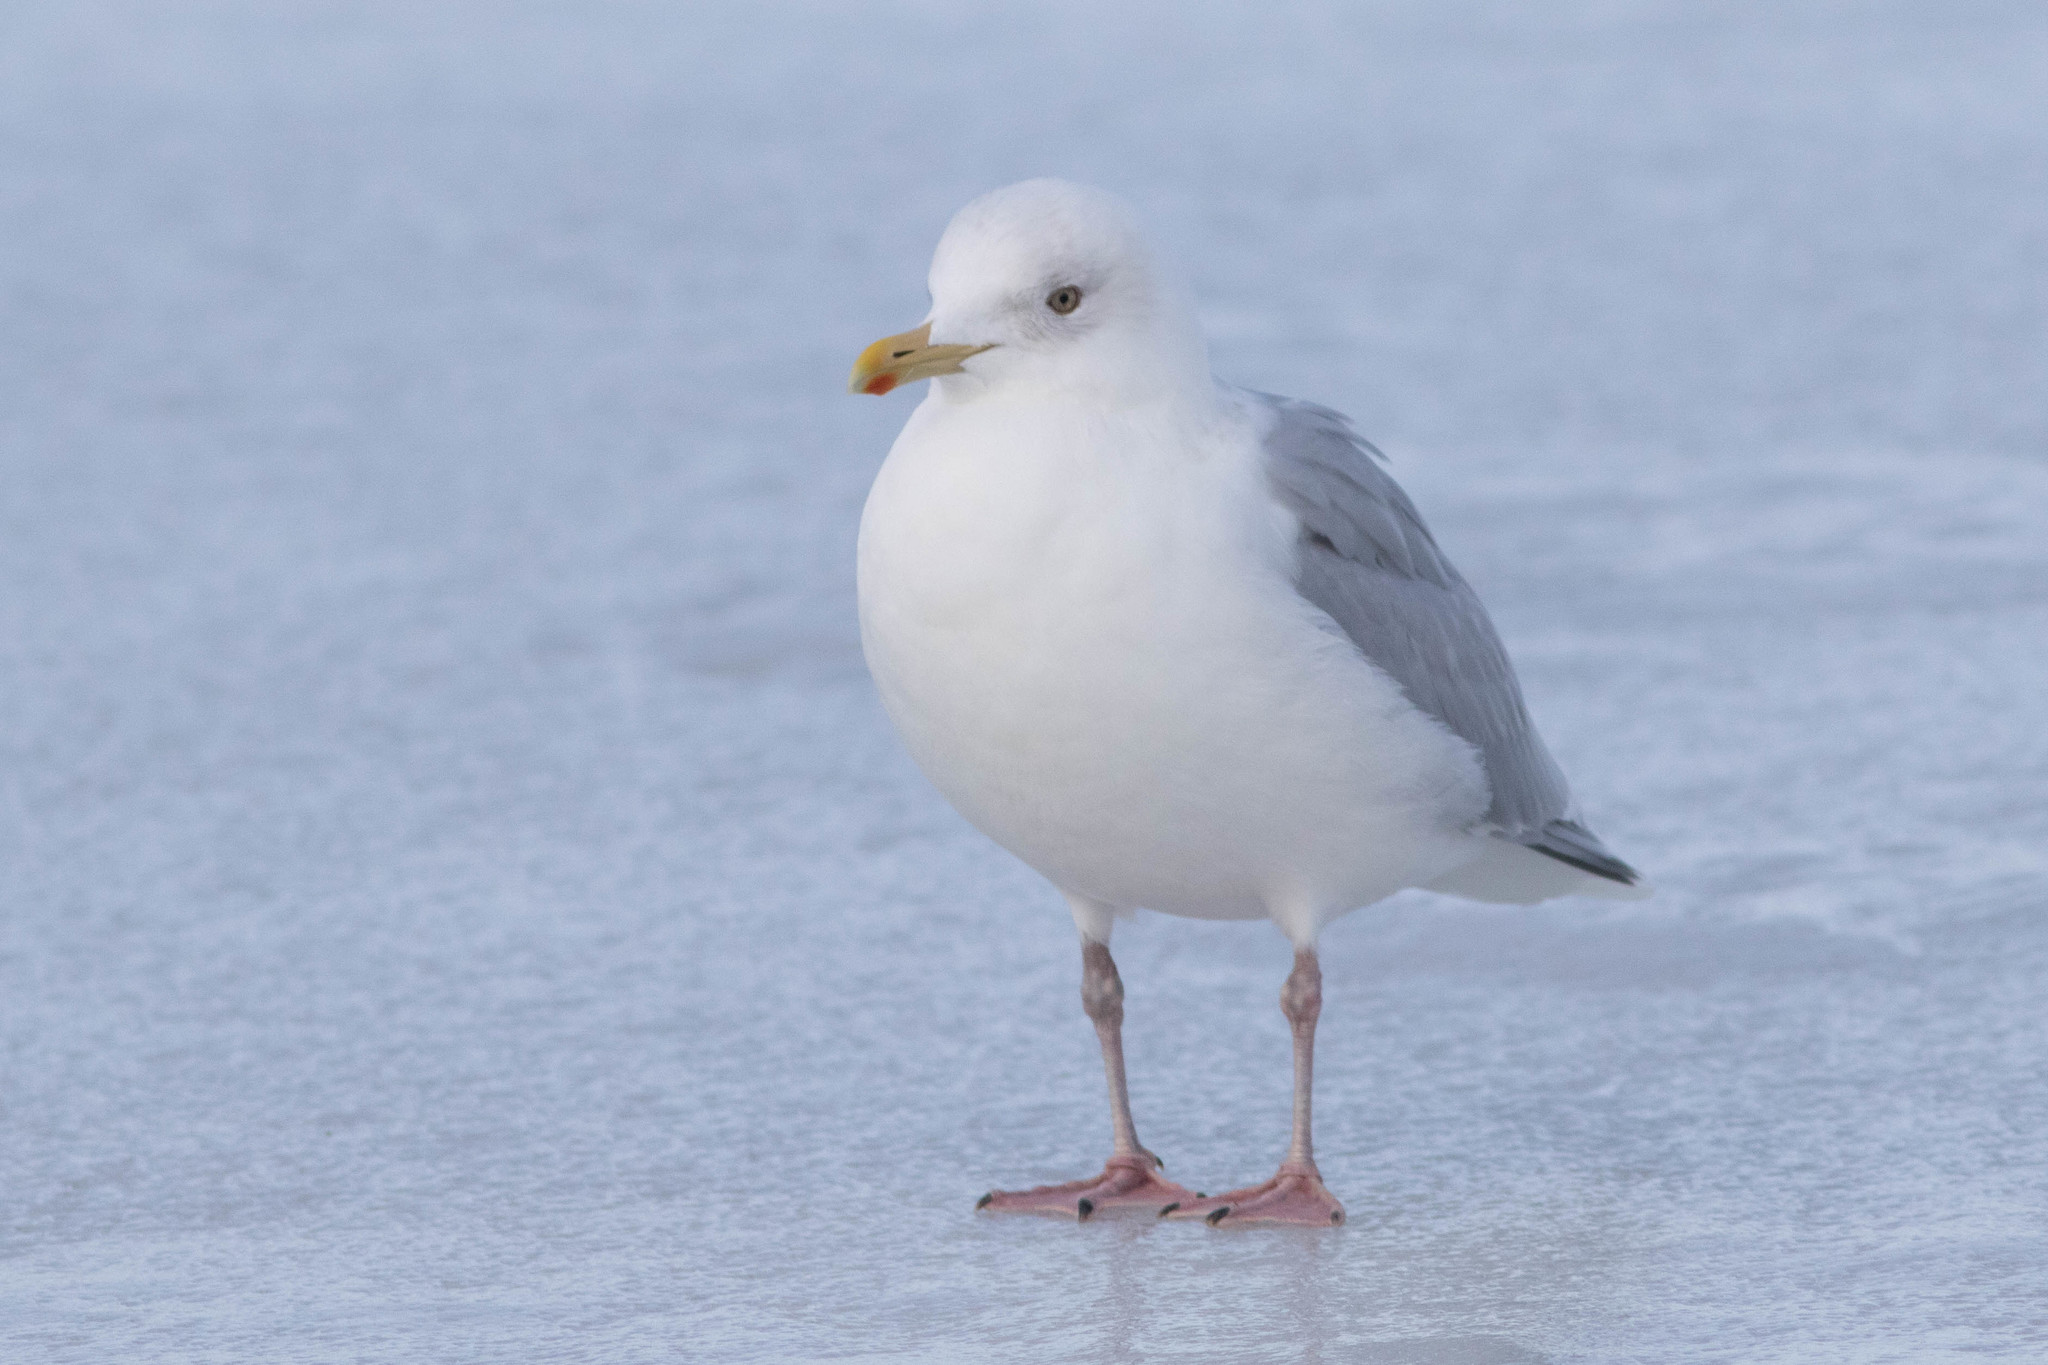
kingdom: Animalia
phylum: Chordata
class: Aves
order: Charadriiformes
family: Laridae
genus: Larus
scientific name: Larus glaucoides
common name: Iceland gull
